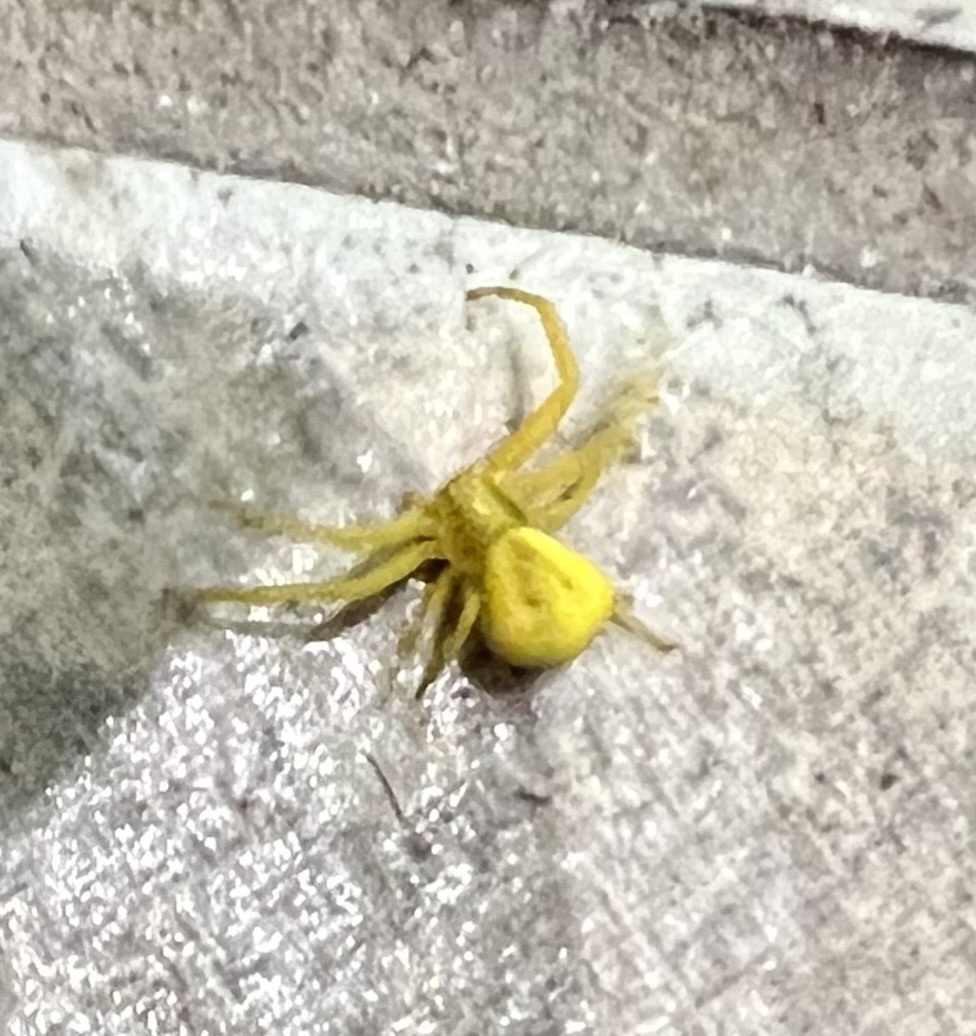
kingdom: Animalia
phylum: Arthropoda
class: Arachnida
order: Araneae
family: Thomisidae
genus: Misumena
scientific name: Misumena vatia
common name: Goldenrod crab spider
